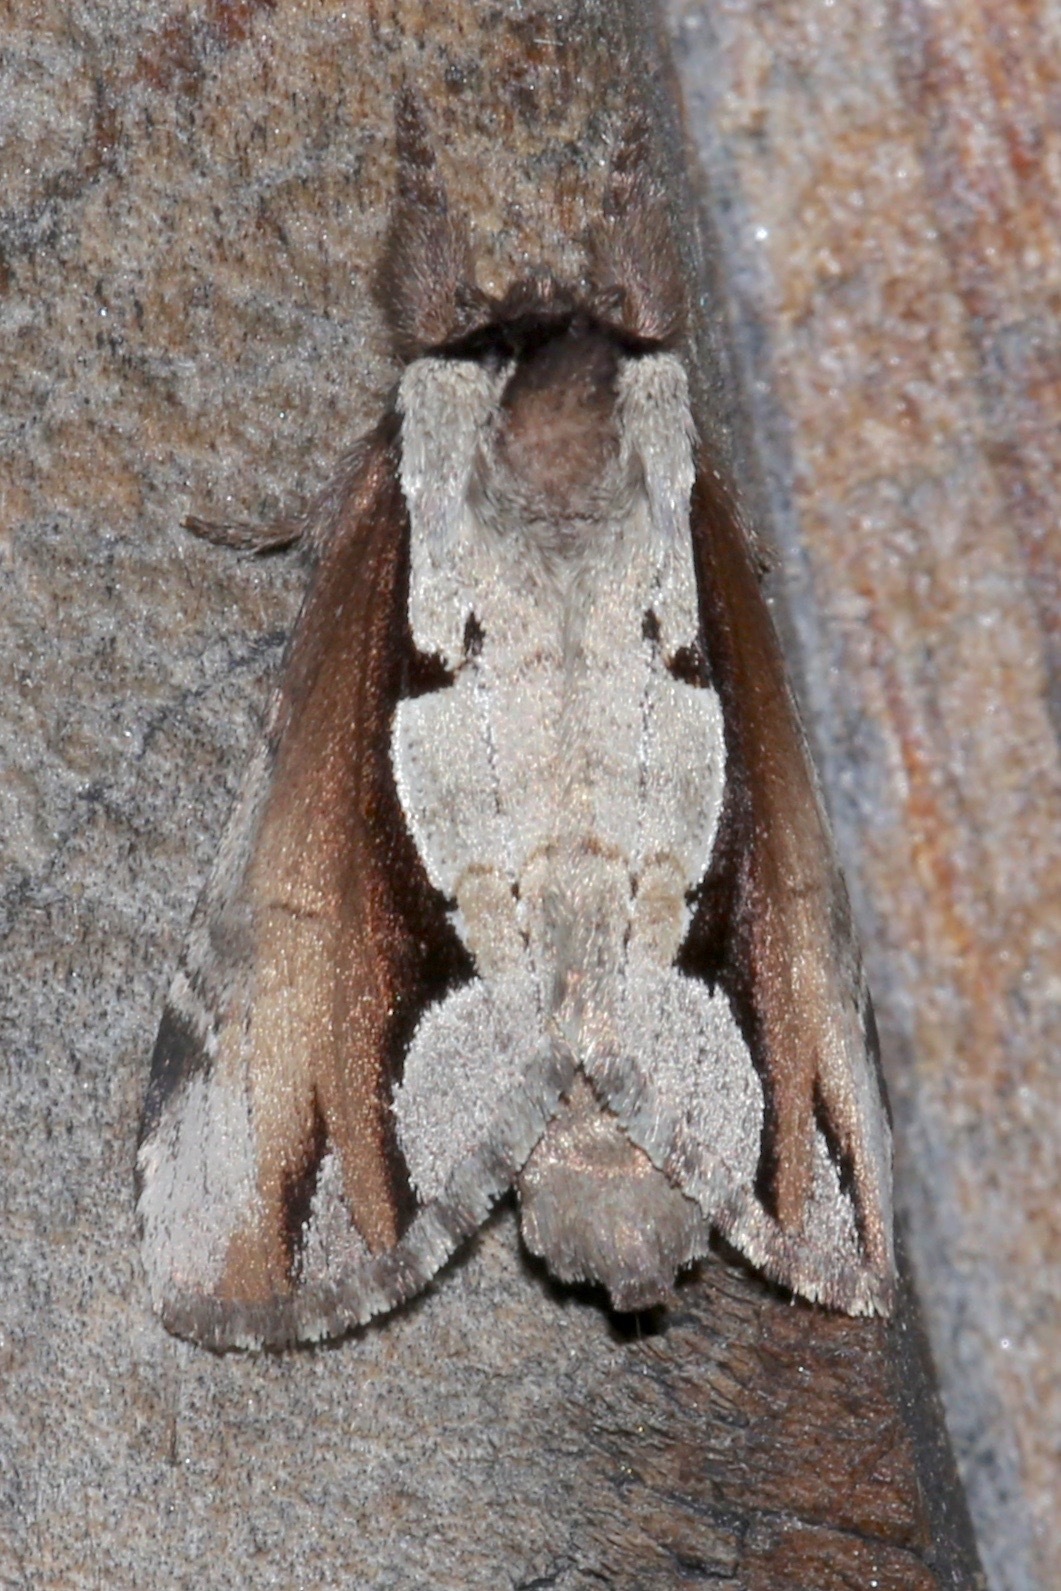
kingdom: Animalia
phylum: Arthropoda
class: Insecta
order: Lepidoptera
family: Notodontidae
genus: Nerice
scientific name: Nerice bidentata
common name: Double-toothed prominent
